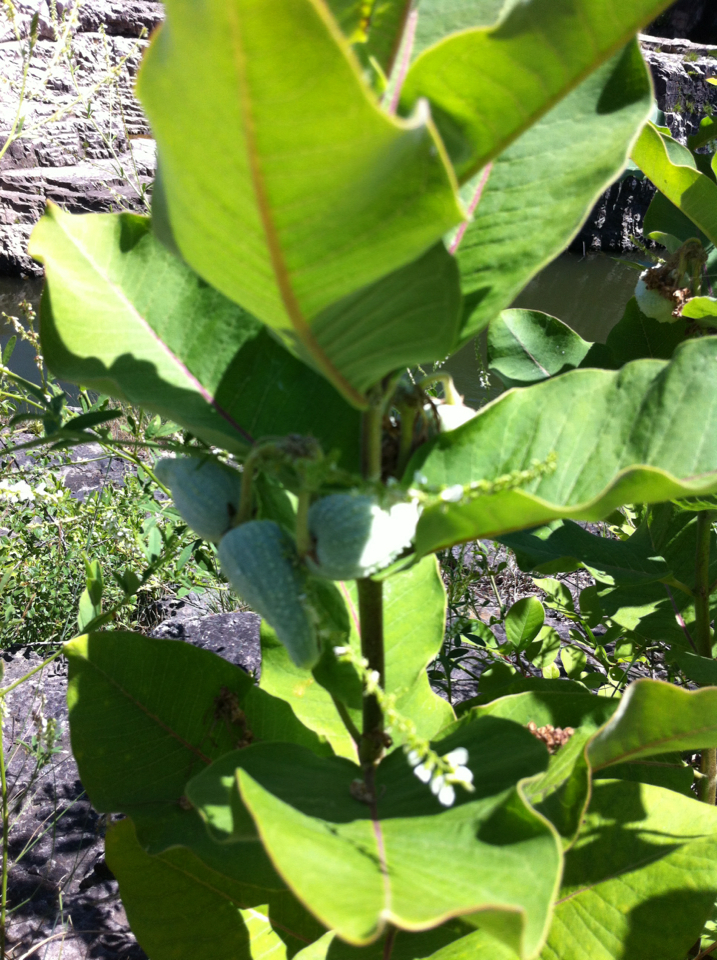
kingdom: Plantae
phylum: Tracheophyta
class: Magnoliopsida
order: Gentianales
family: Apocynaceae
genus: Asclepias
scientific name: Asclepias syriaca
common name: Common milkweed
